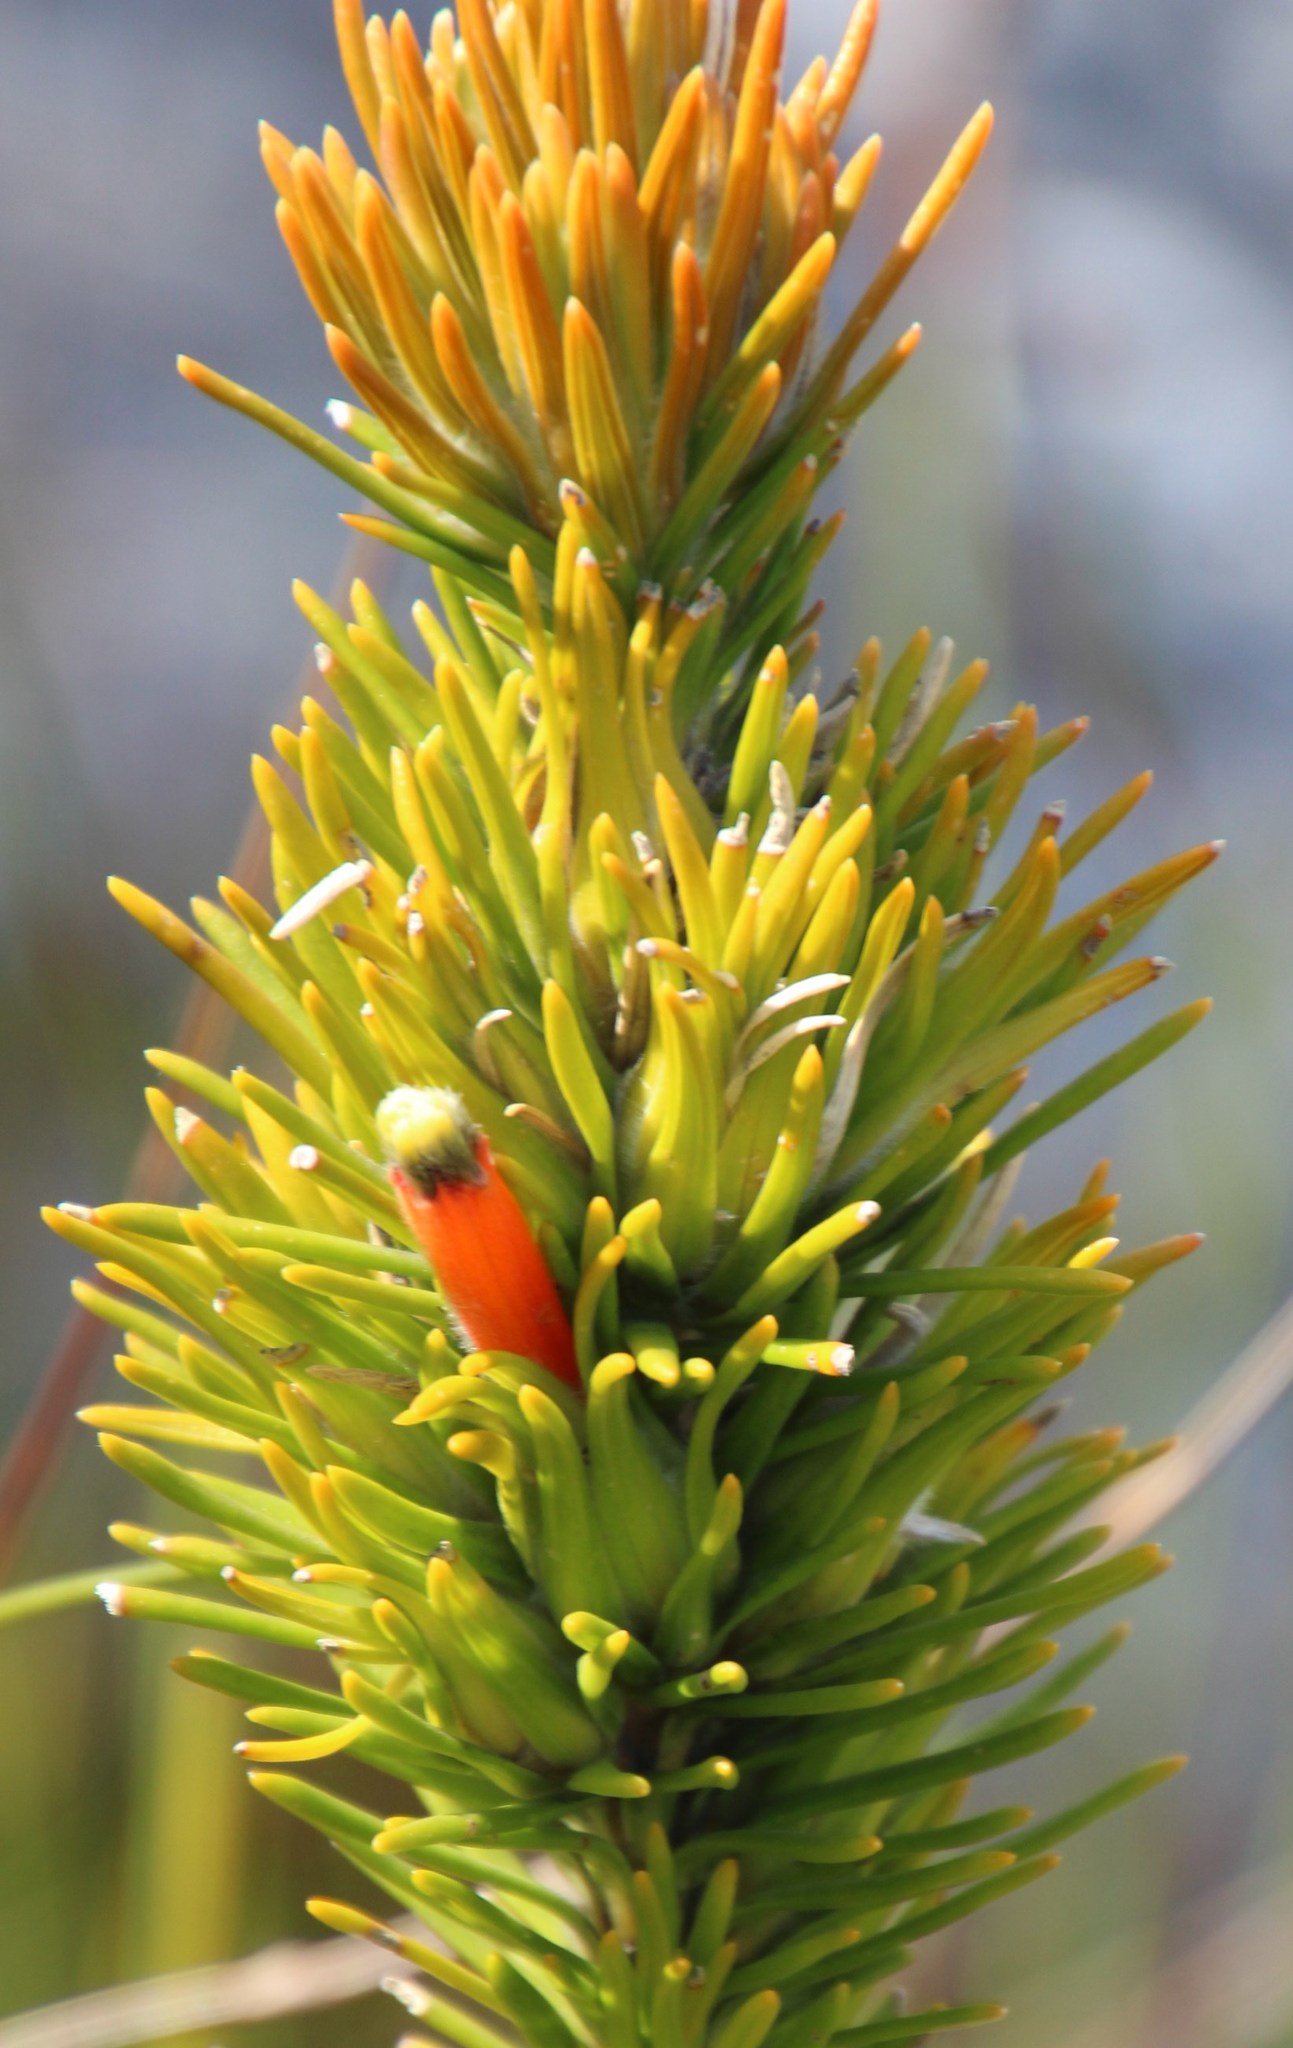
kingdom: Plantae
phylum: Tracheophyta
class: Magnoliopsida
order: Lamiales
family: Stilbaceae
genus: Retzia
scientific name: Retzia capensis
